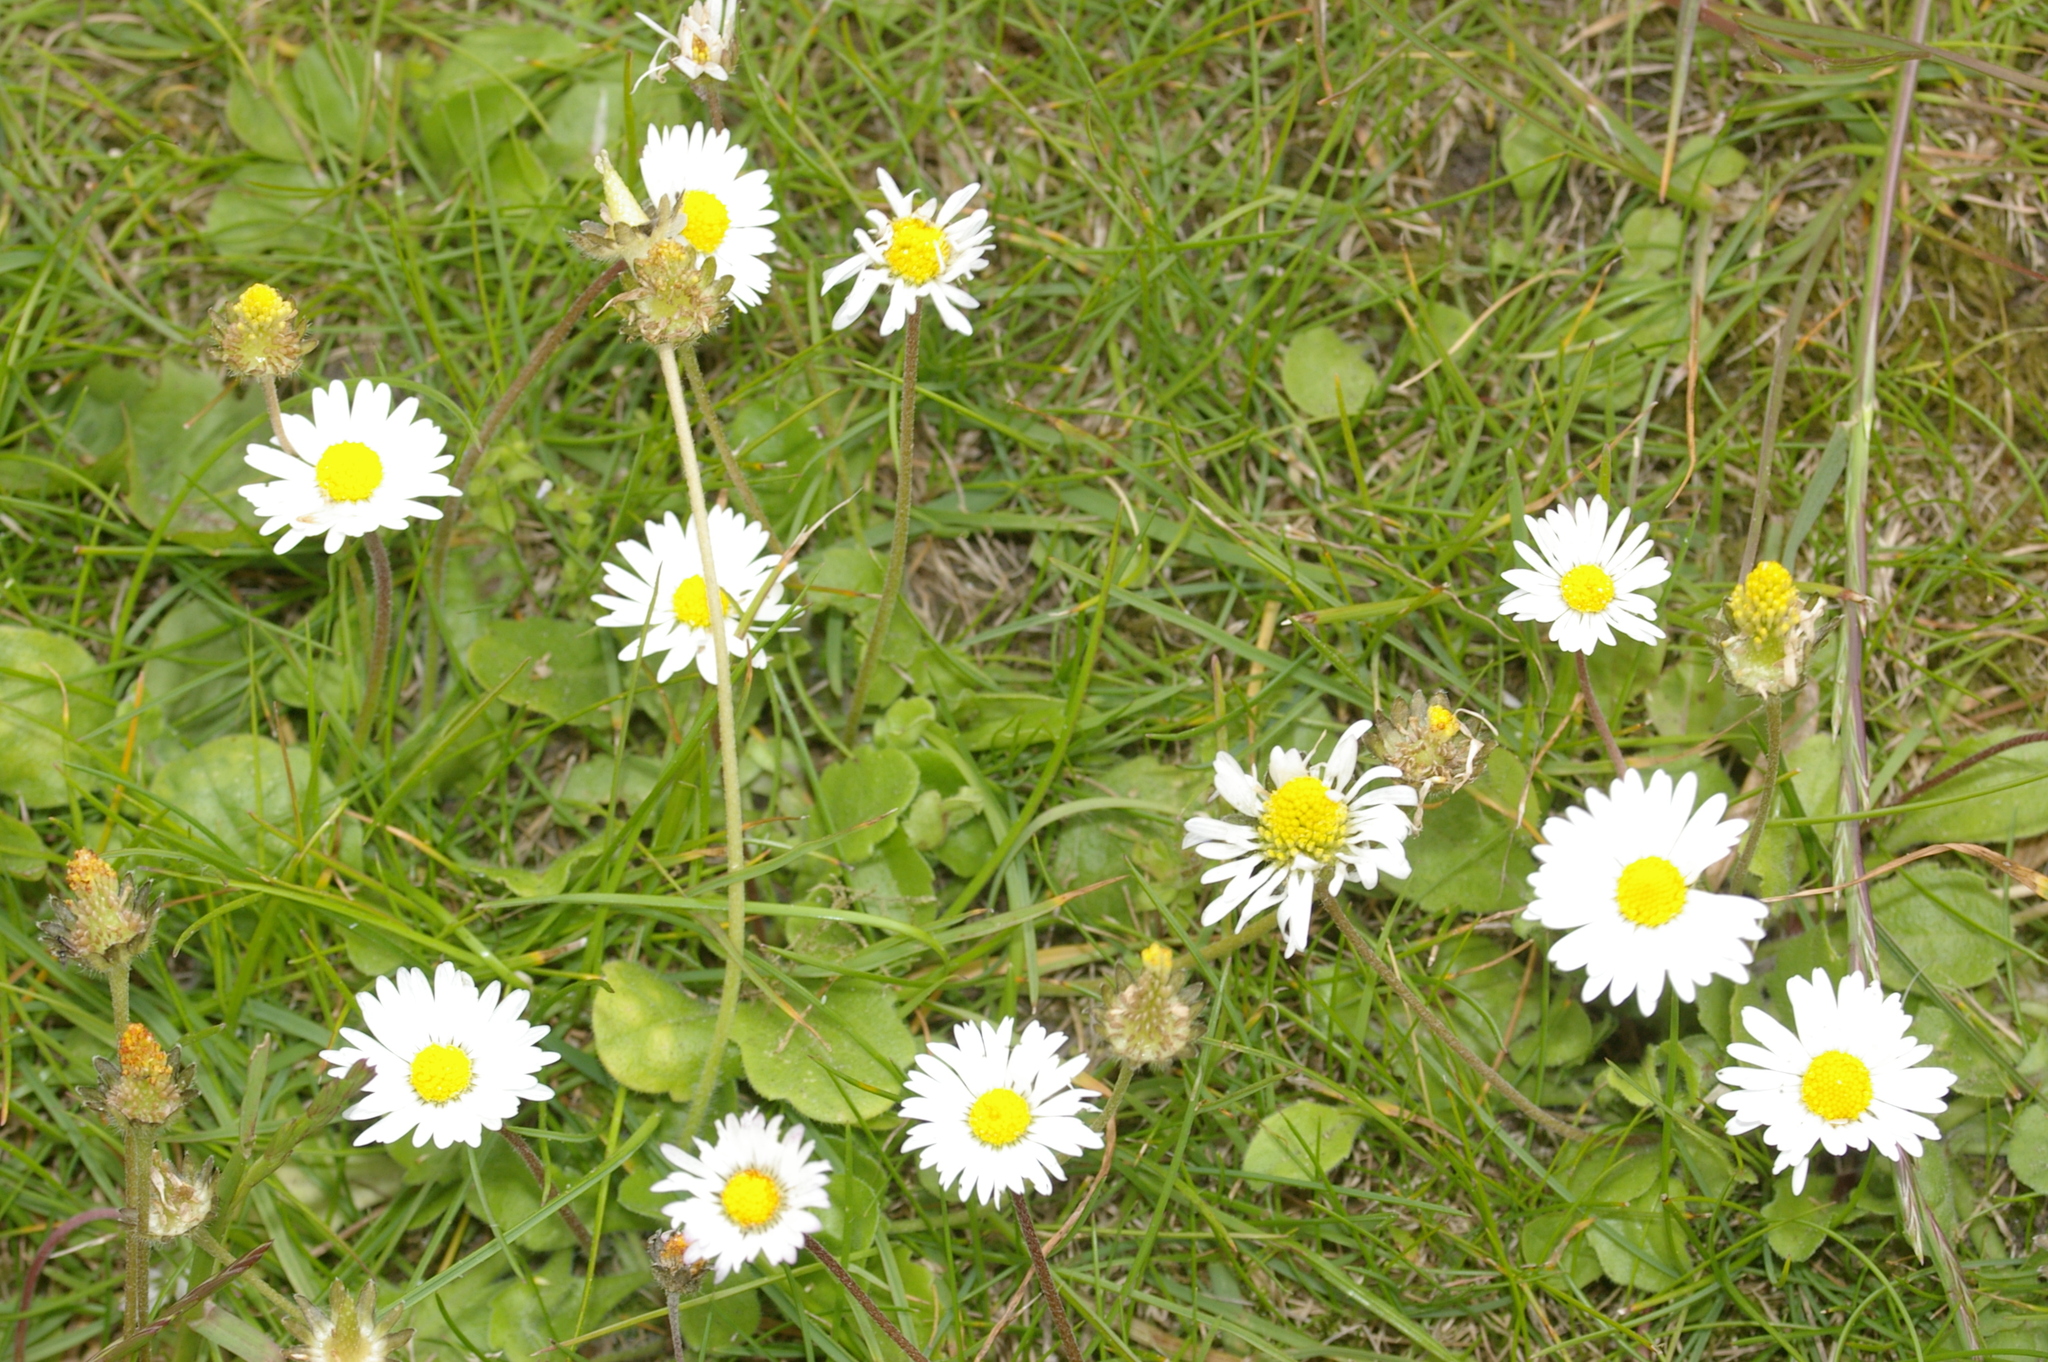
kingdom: Plantae
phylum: Tracheophyta
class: Magnoliopsida
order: Asterales
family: Asteraceae
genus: Bellis
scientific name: Bellis perennis
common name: Lawndaisy
